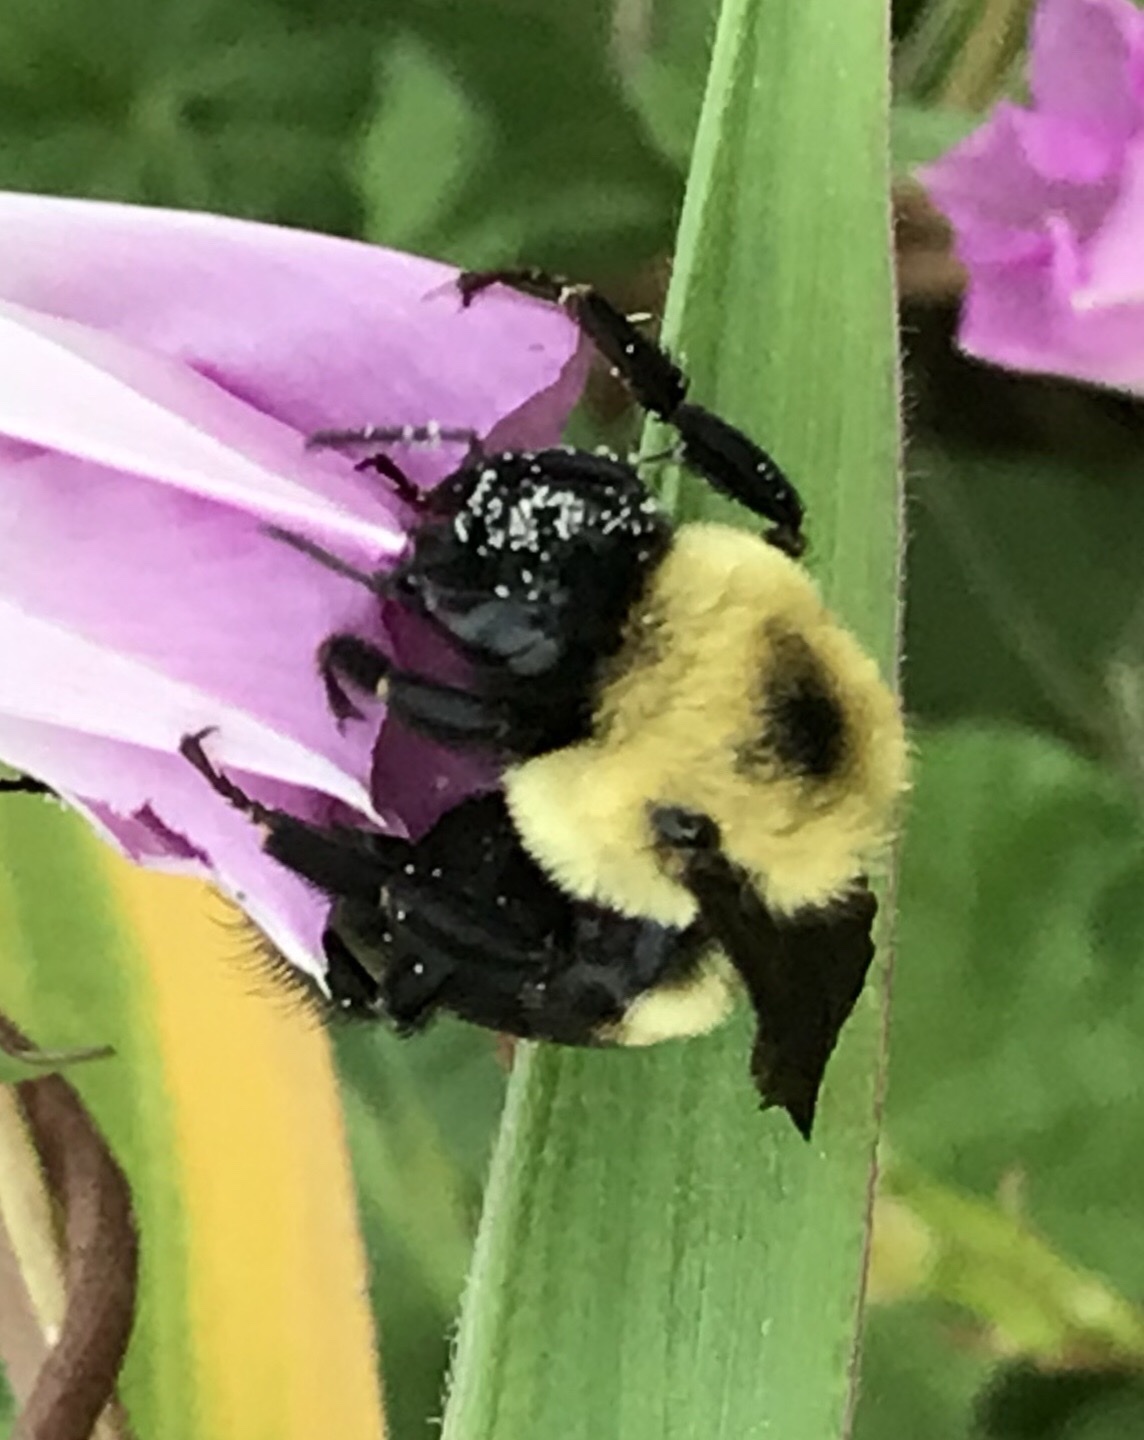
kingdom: Animalia
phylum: Arthropoda
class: Insecta
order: Hymenoptera
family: Apidae
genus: Bombus
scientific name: Bombus griseocollis
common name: Brown-belted bumble bee
